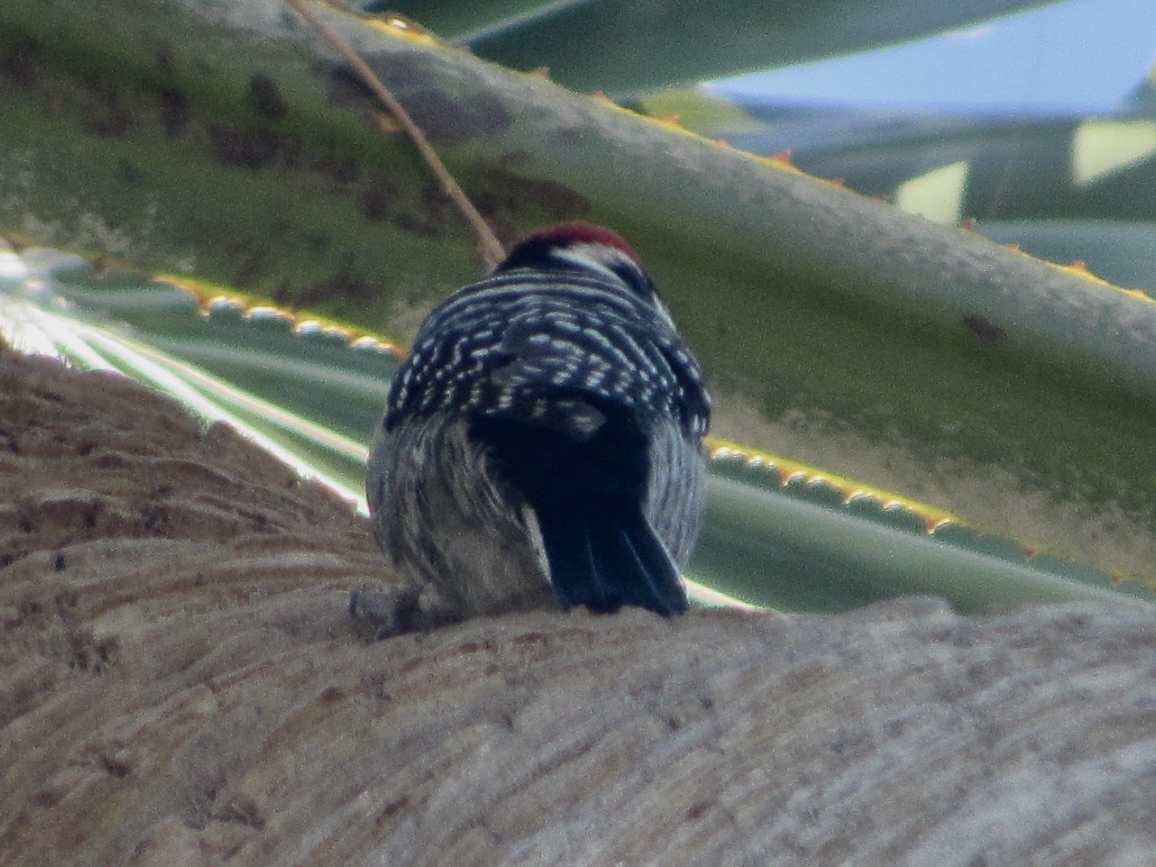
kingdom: Animalia
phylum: Chordata
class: Aves
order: Piciformes
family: Picidae
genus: Dryobates
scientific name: Dryobates nuttallii
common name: Nuttall's woodpecker
